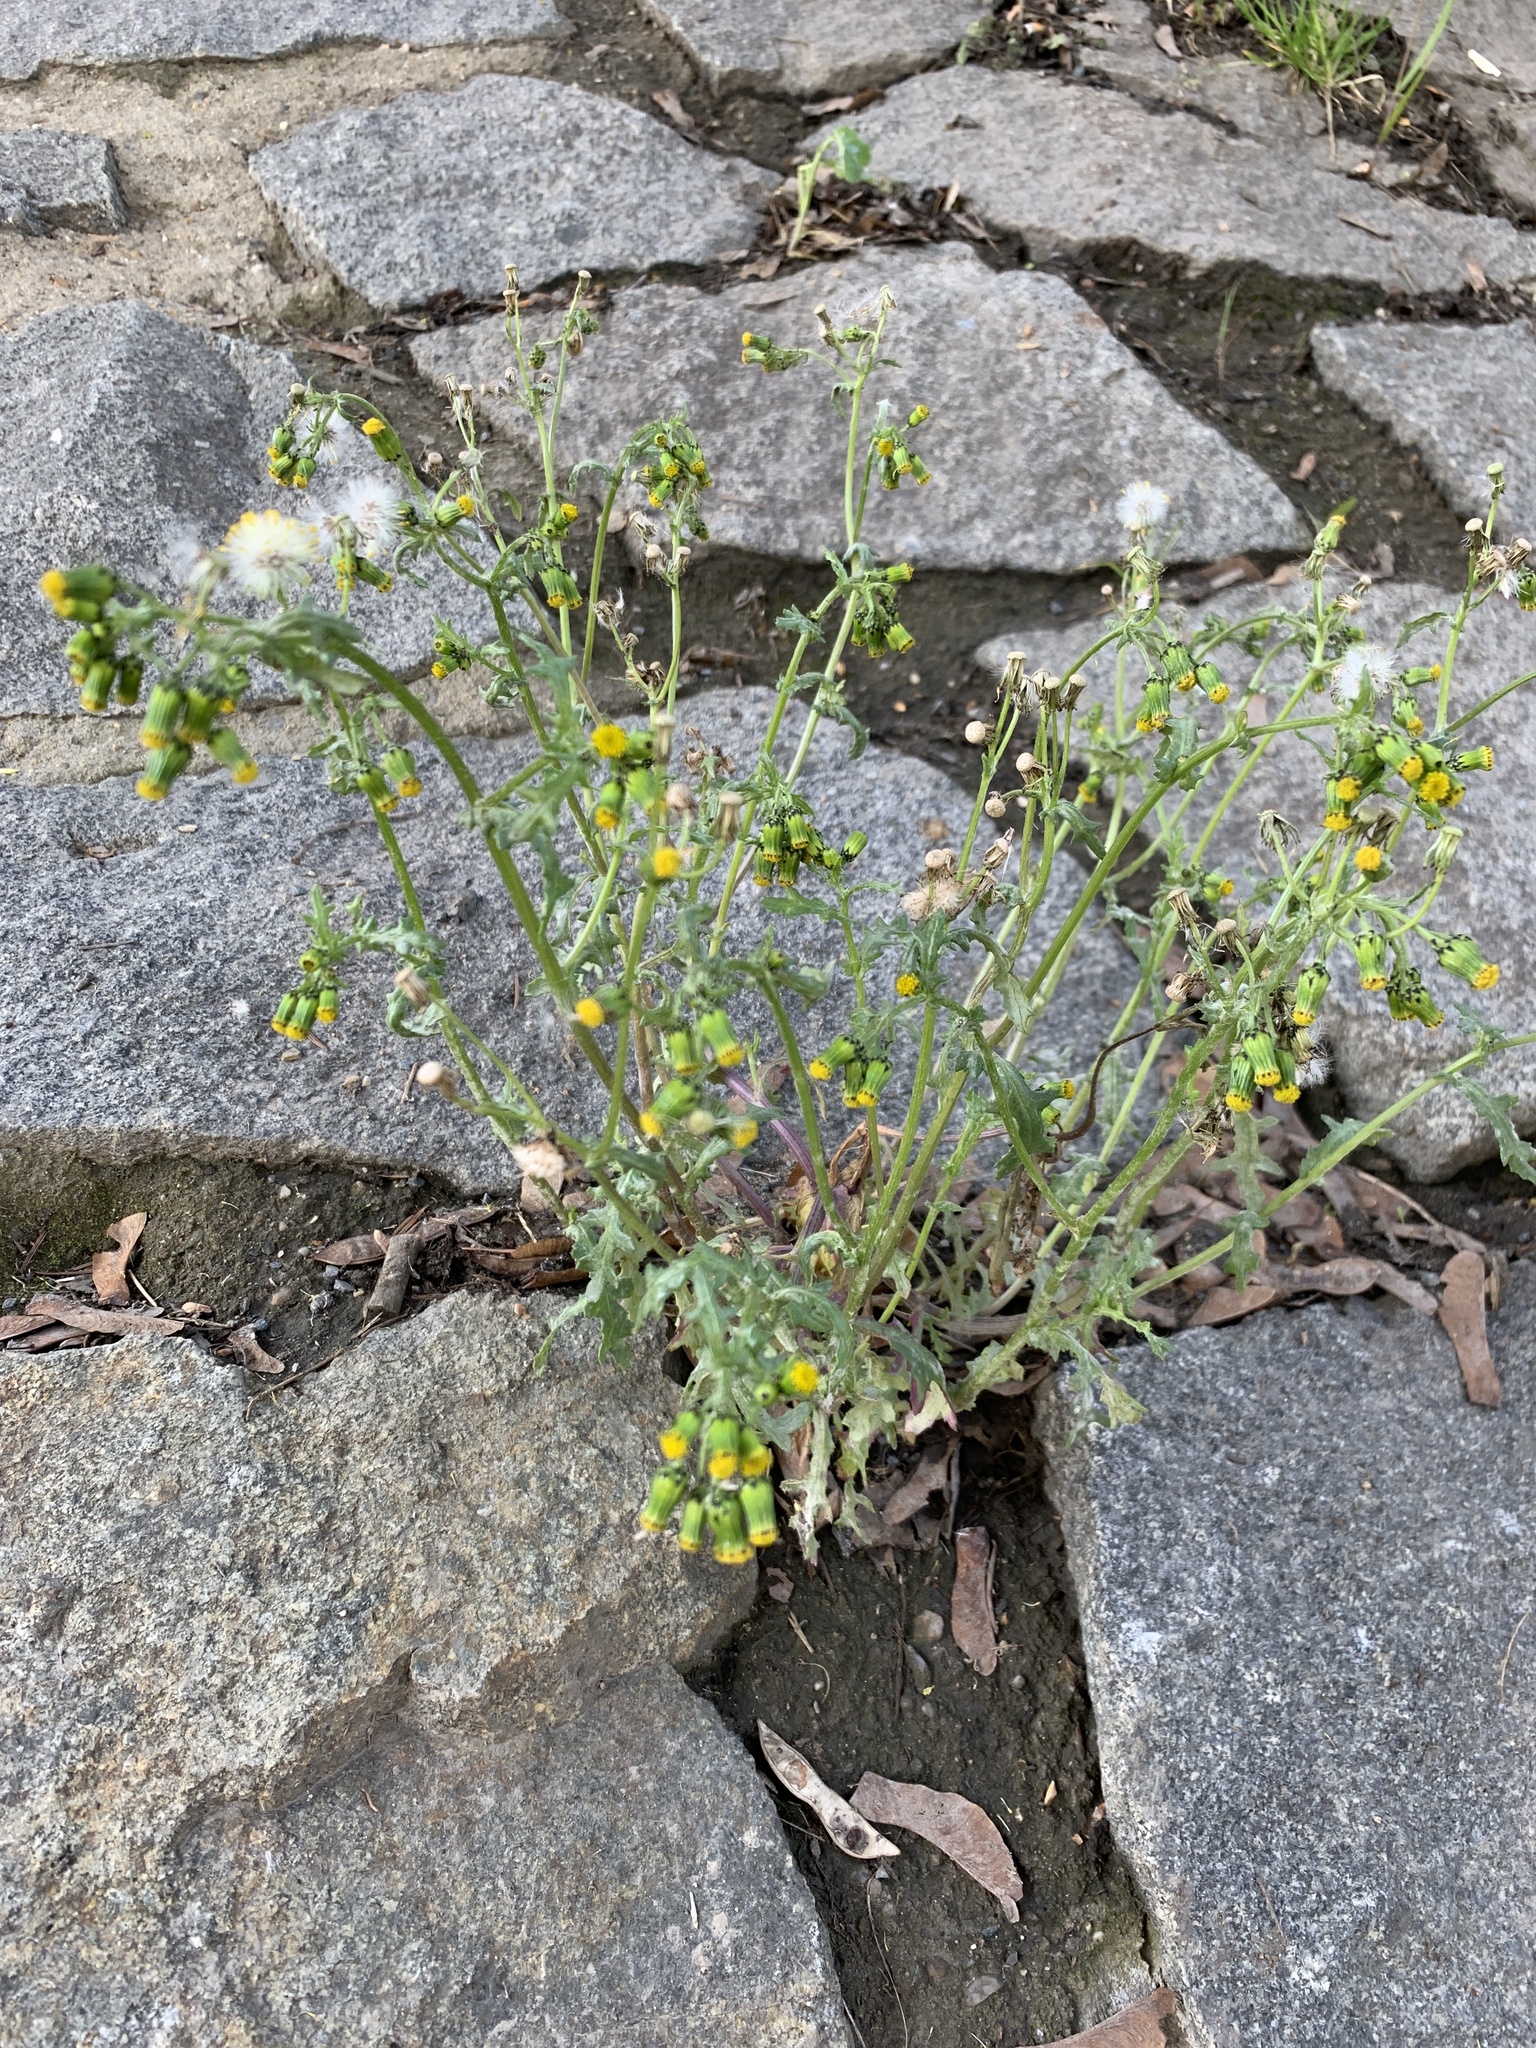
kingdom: Plantae
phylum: Tracheophyta
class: Magnoliopsida
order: Asterales
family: Asteraceae
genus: Senecio
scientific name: Senecio vulgaris
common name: Old-man-in-the-spring
